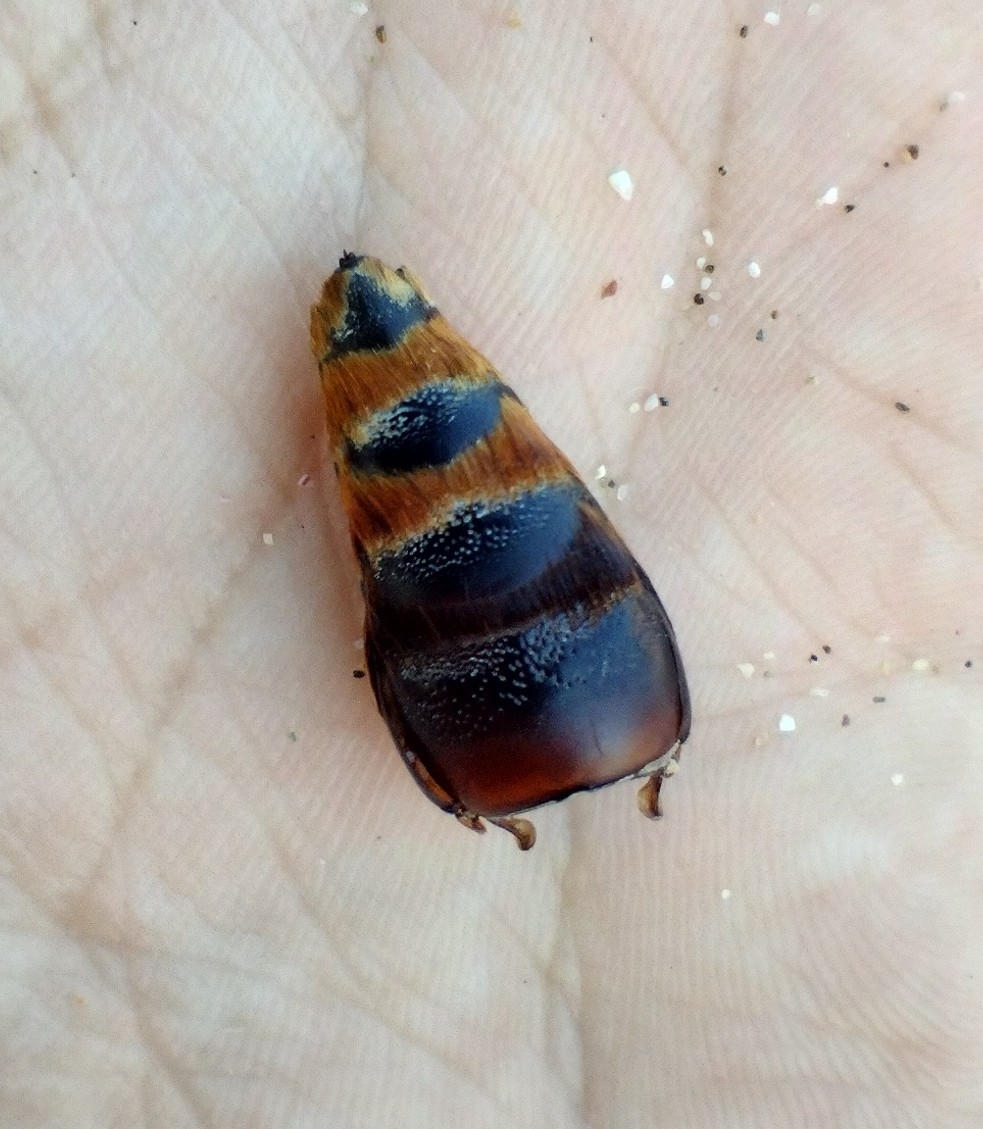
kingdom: Animalia
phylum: Arthropoda
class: Insecta
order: Hymenoptera
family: Scoliidae
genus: Megascolia
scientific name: Megascolia maculata
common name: Mammoth wasp
